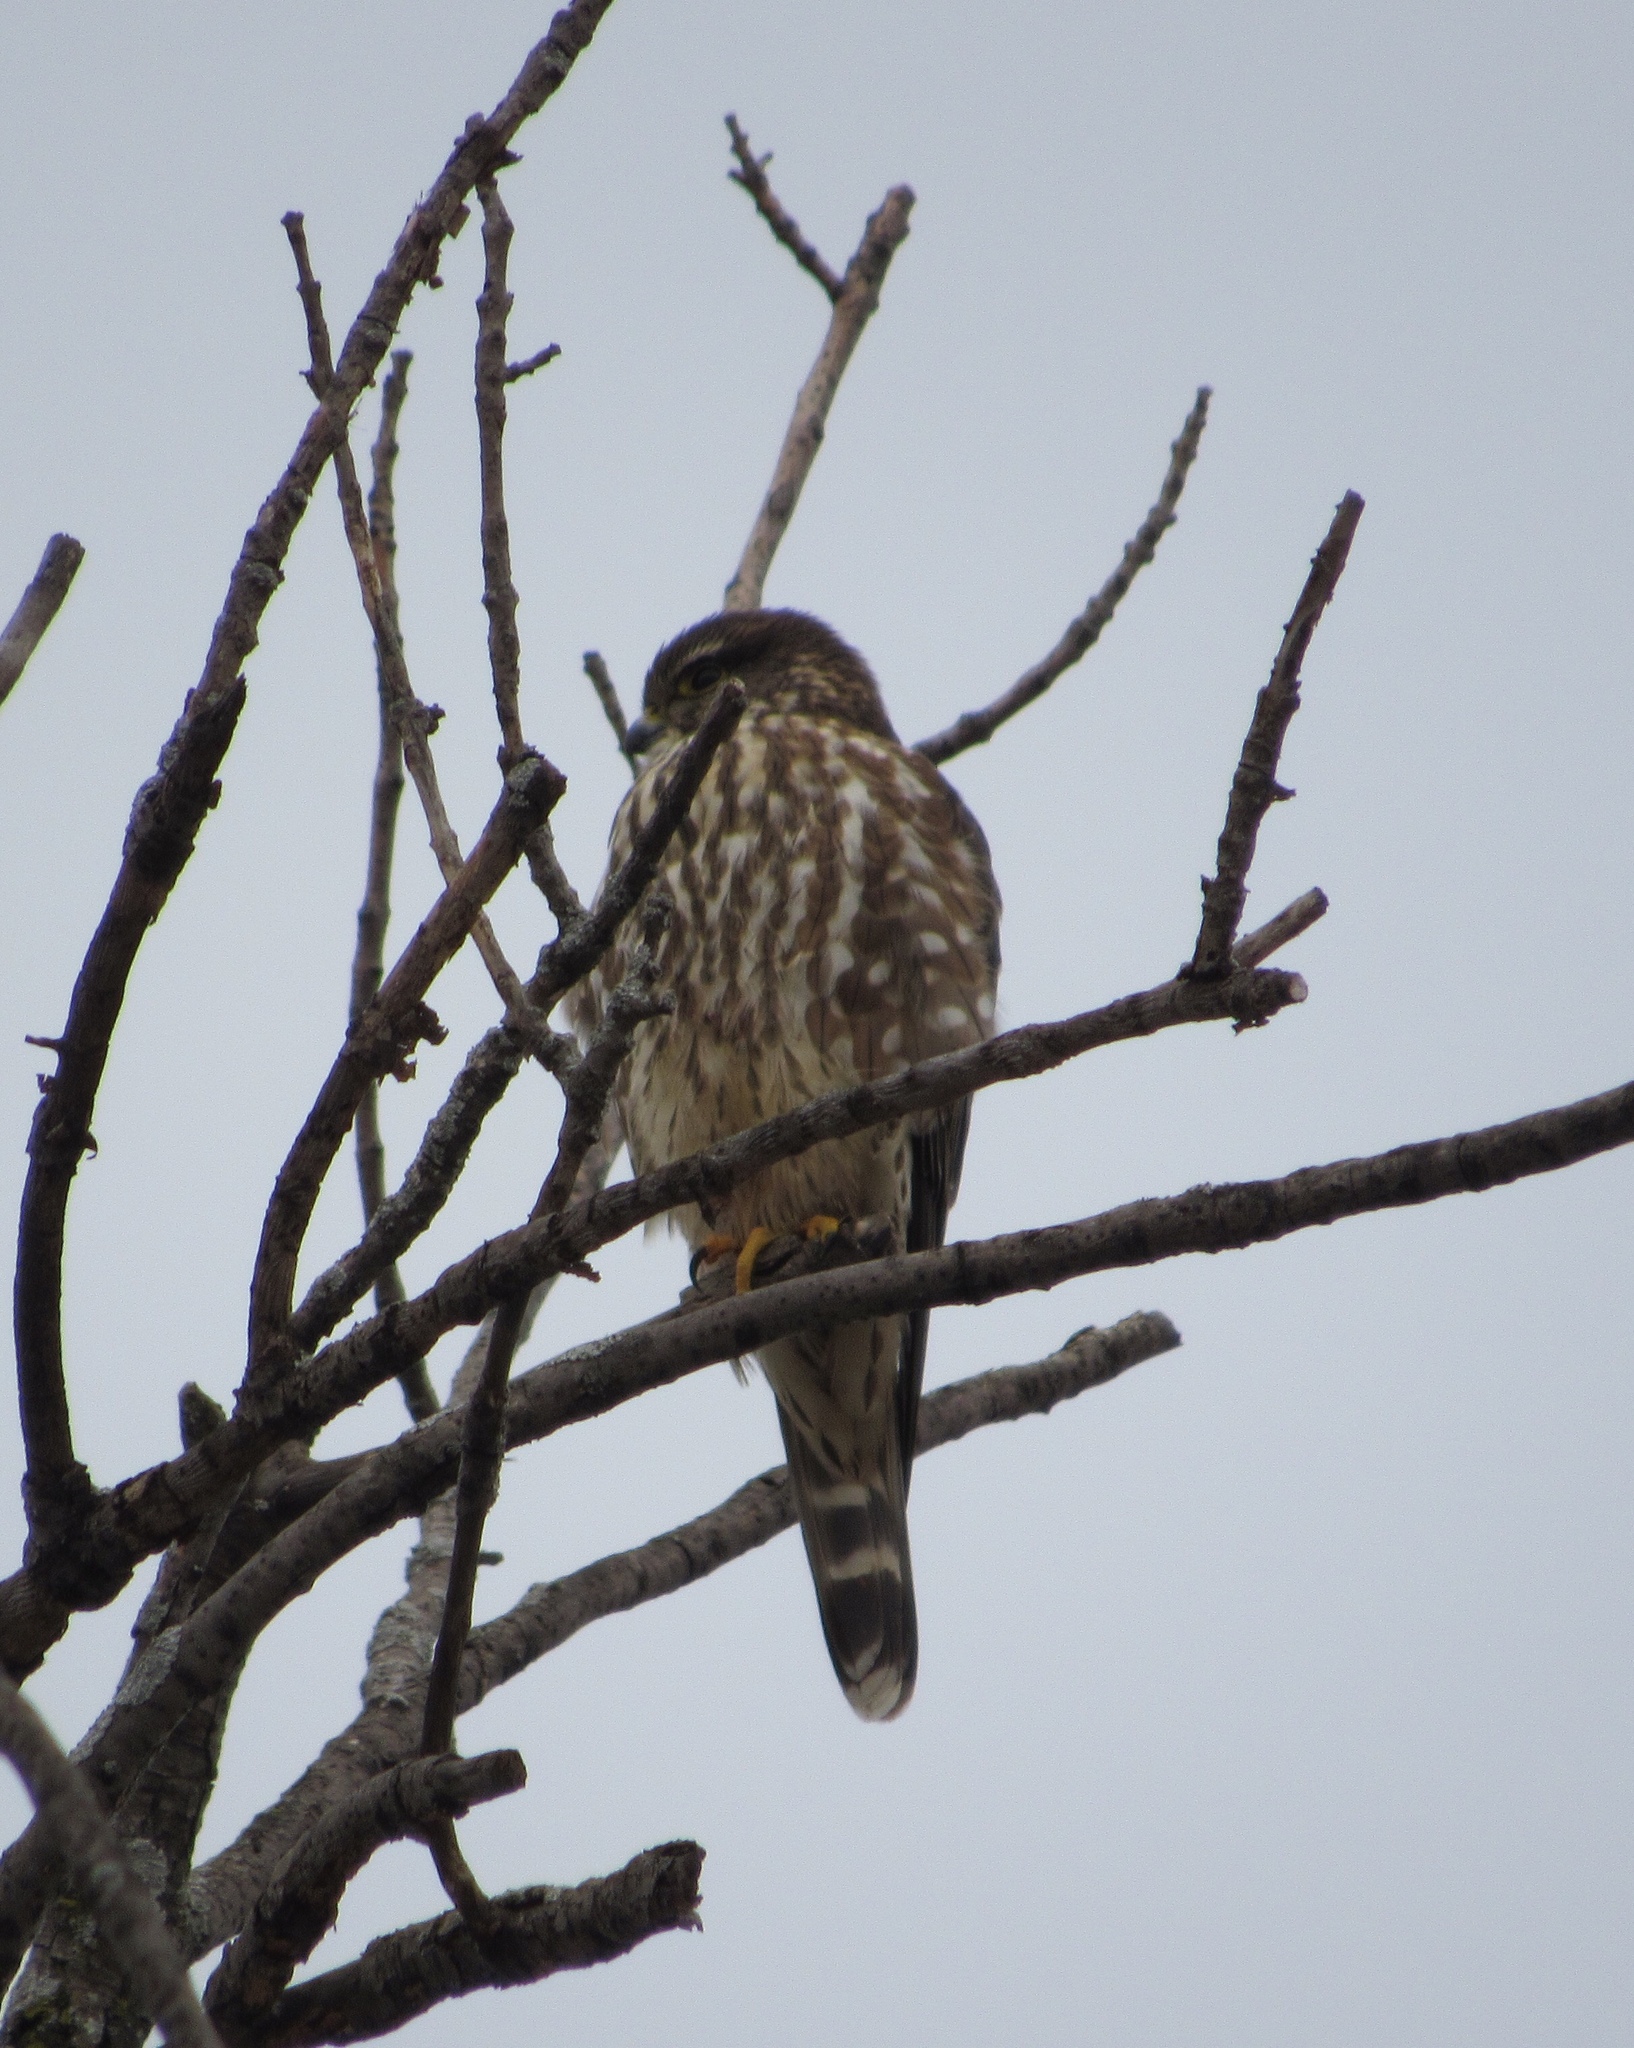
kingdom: Animalia
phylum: Chordata
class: Aves
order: Falconiformes
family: Falconidae
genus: Falco
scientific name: Falco columbarius
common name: Merlin
